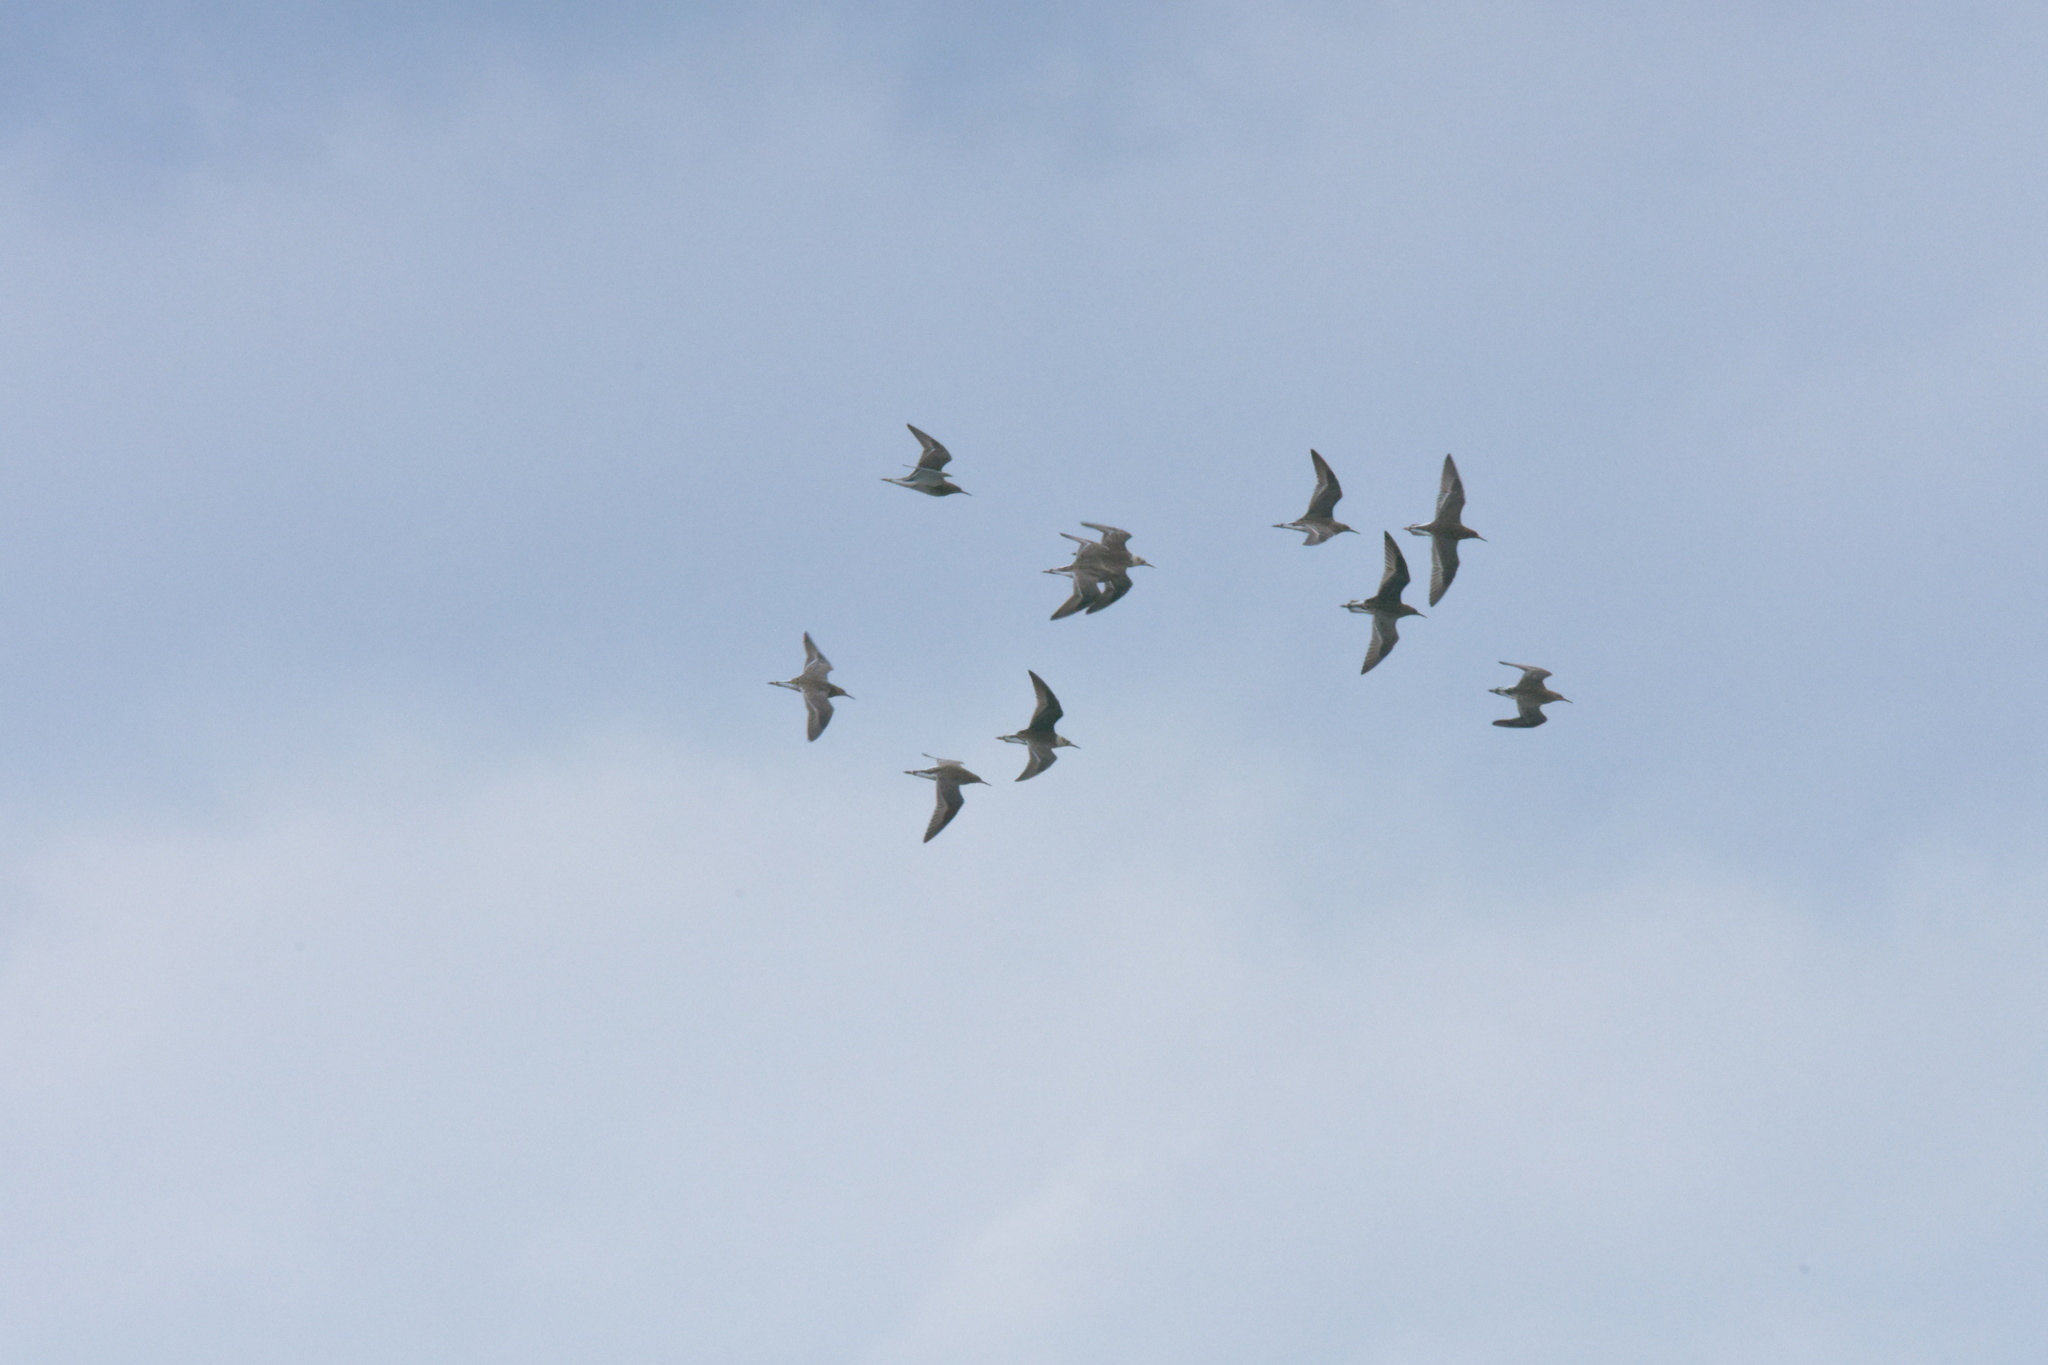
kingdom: Animalia
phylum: Chordata
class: Aves
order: Charadriiformes
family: Scolopacidae
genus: Calidris
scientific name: Calidris pugnax
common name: Ruff
